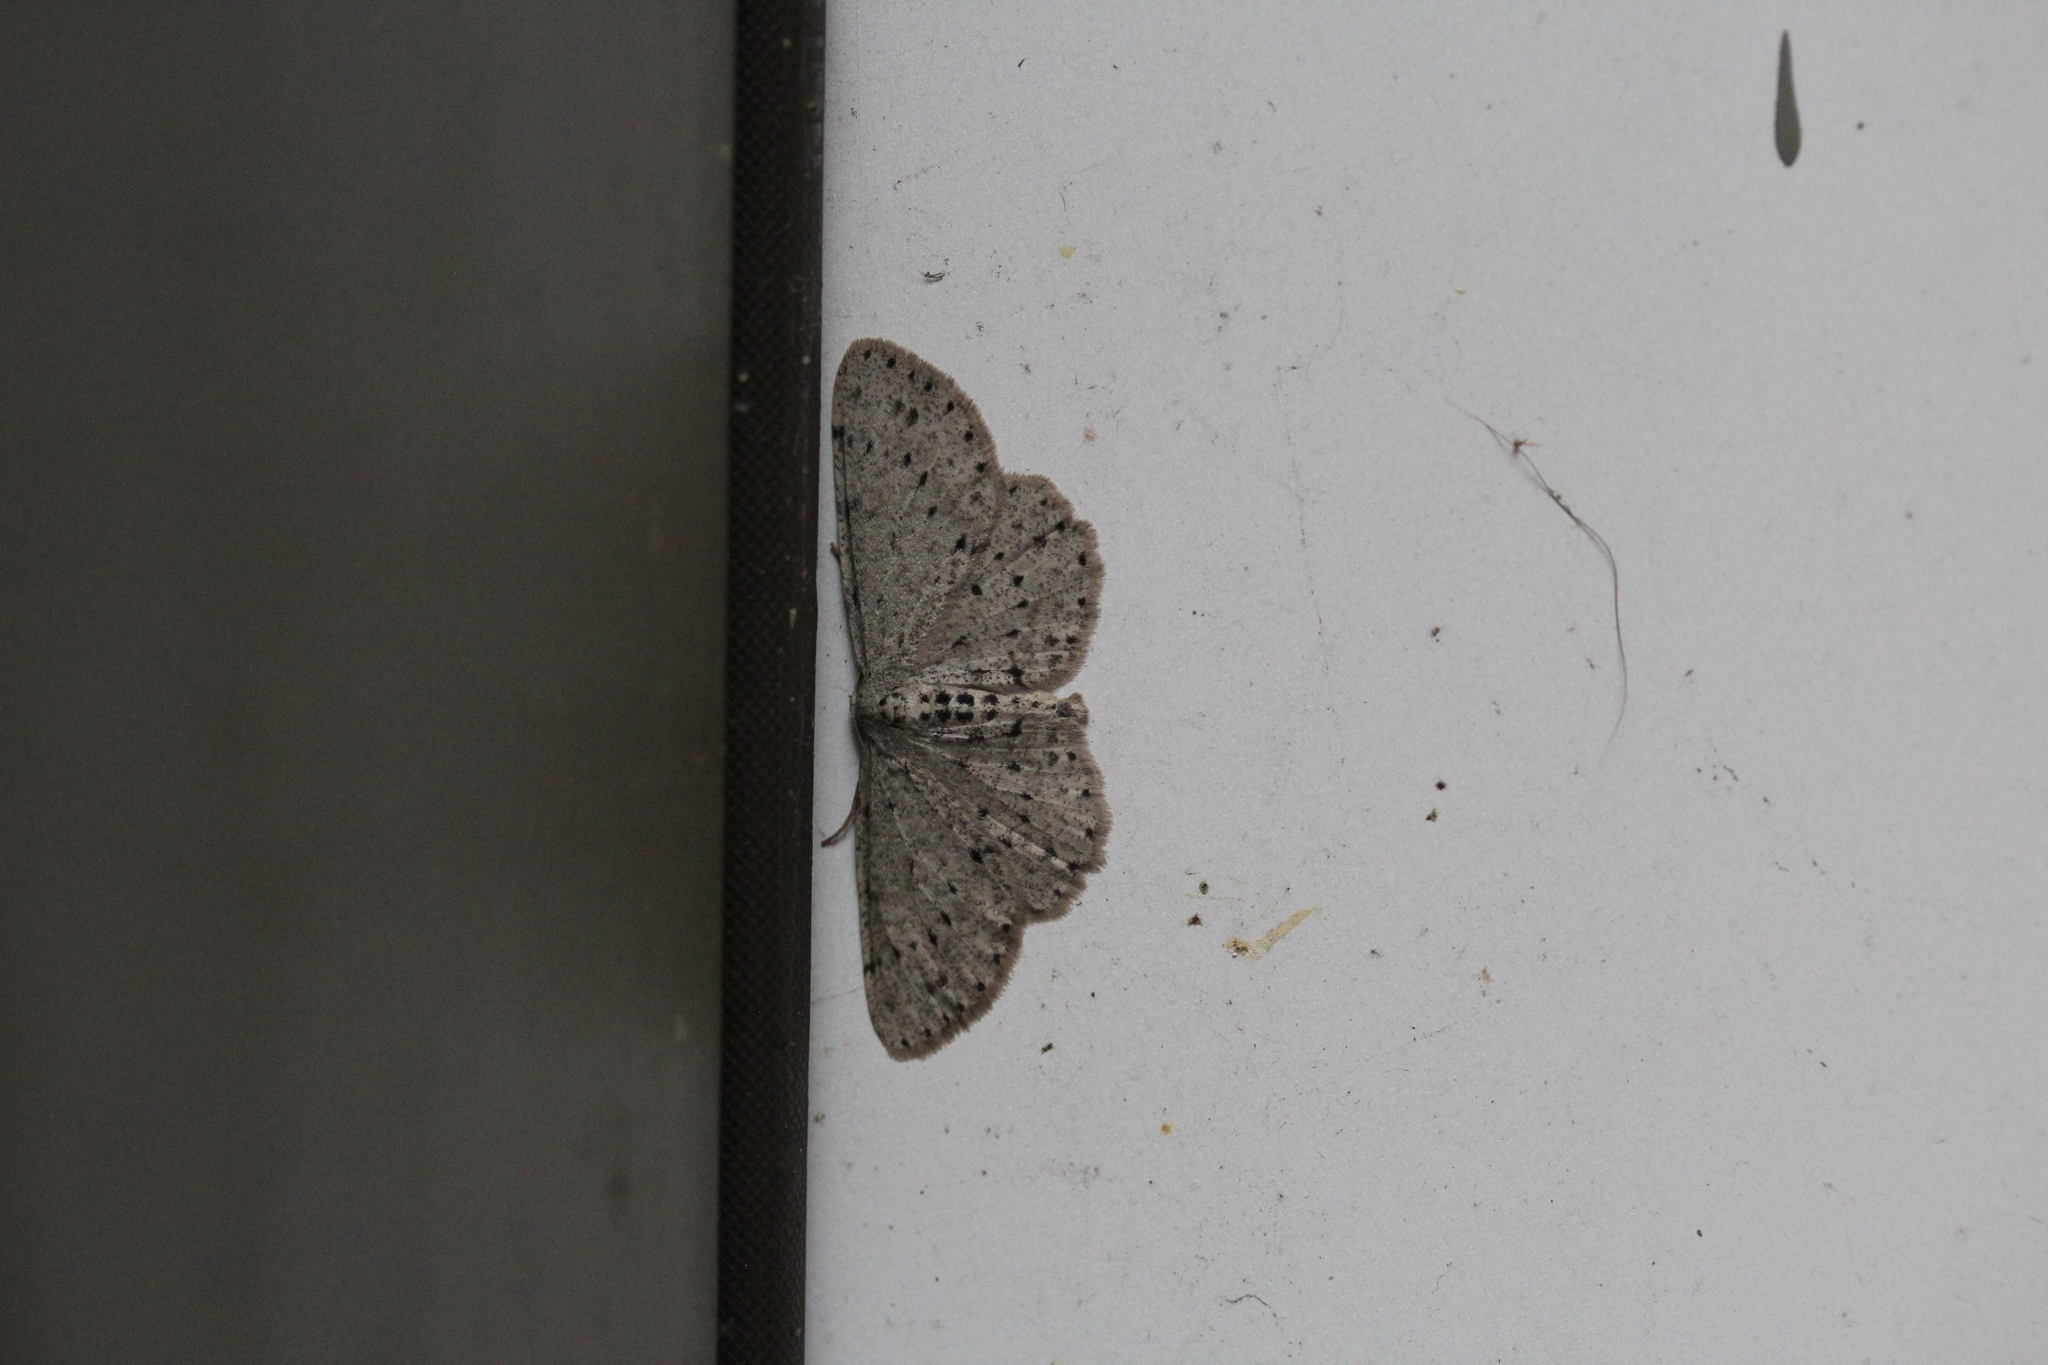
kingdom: Animalia
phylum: Arthropoda
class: Insecta
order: Lepidoptera
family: Geometridae
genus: Glena
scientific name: Glena cribrataria
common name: Dotted gray
